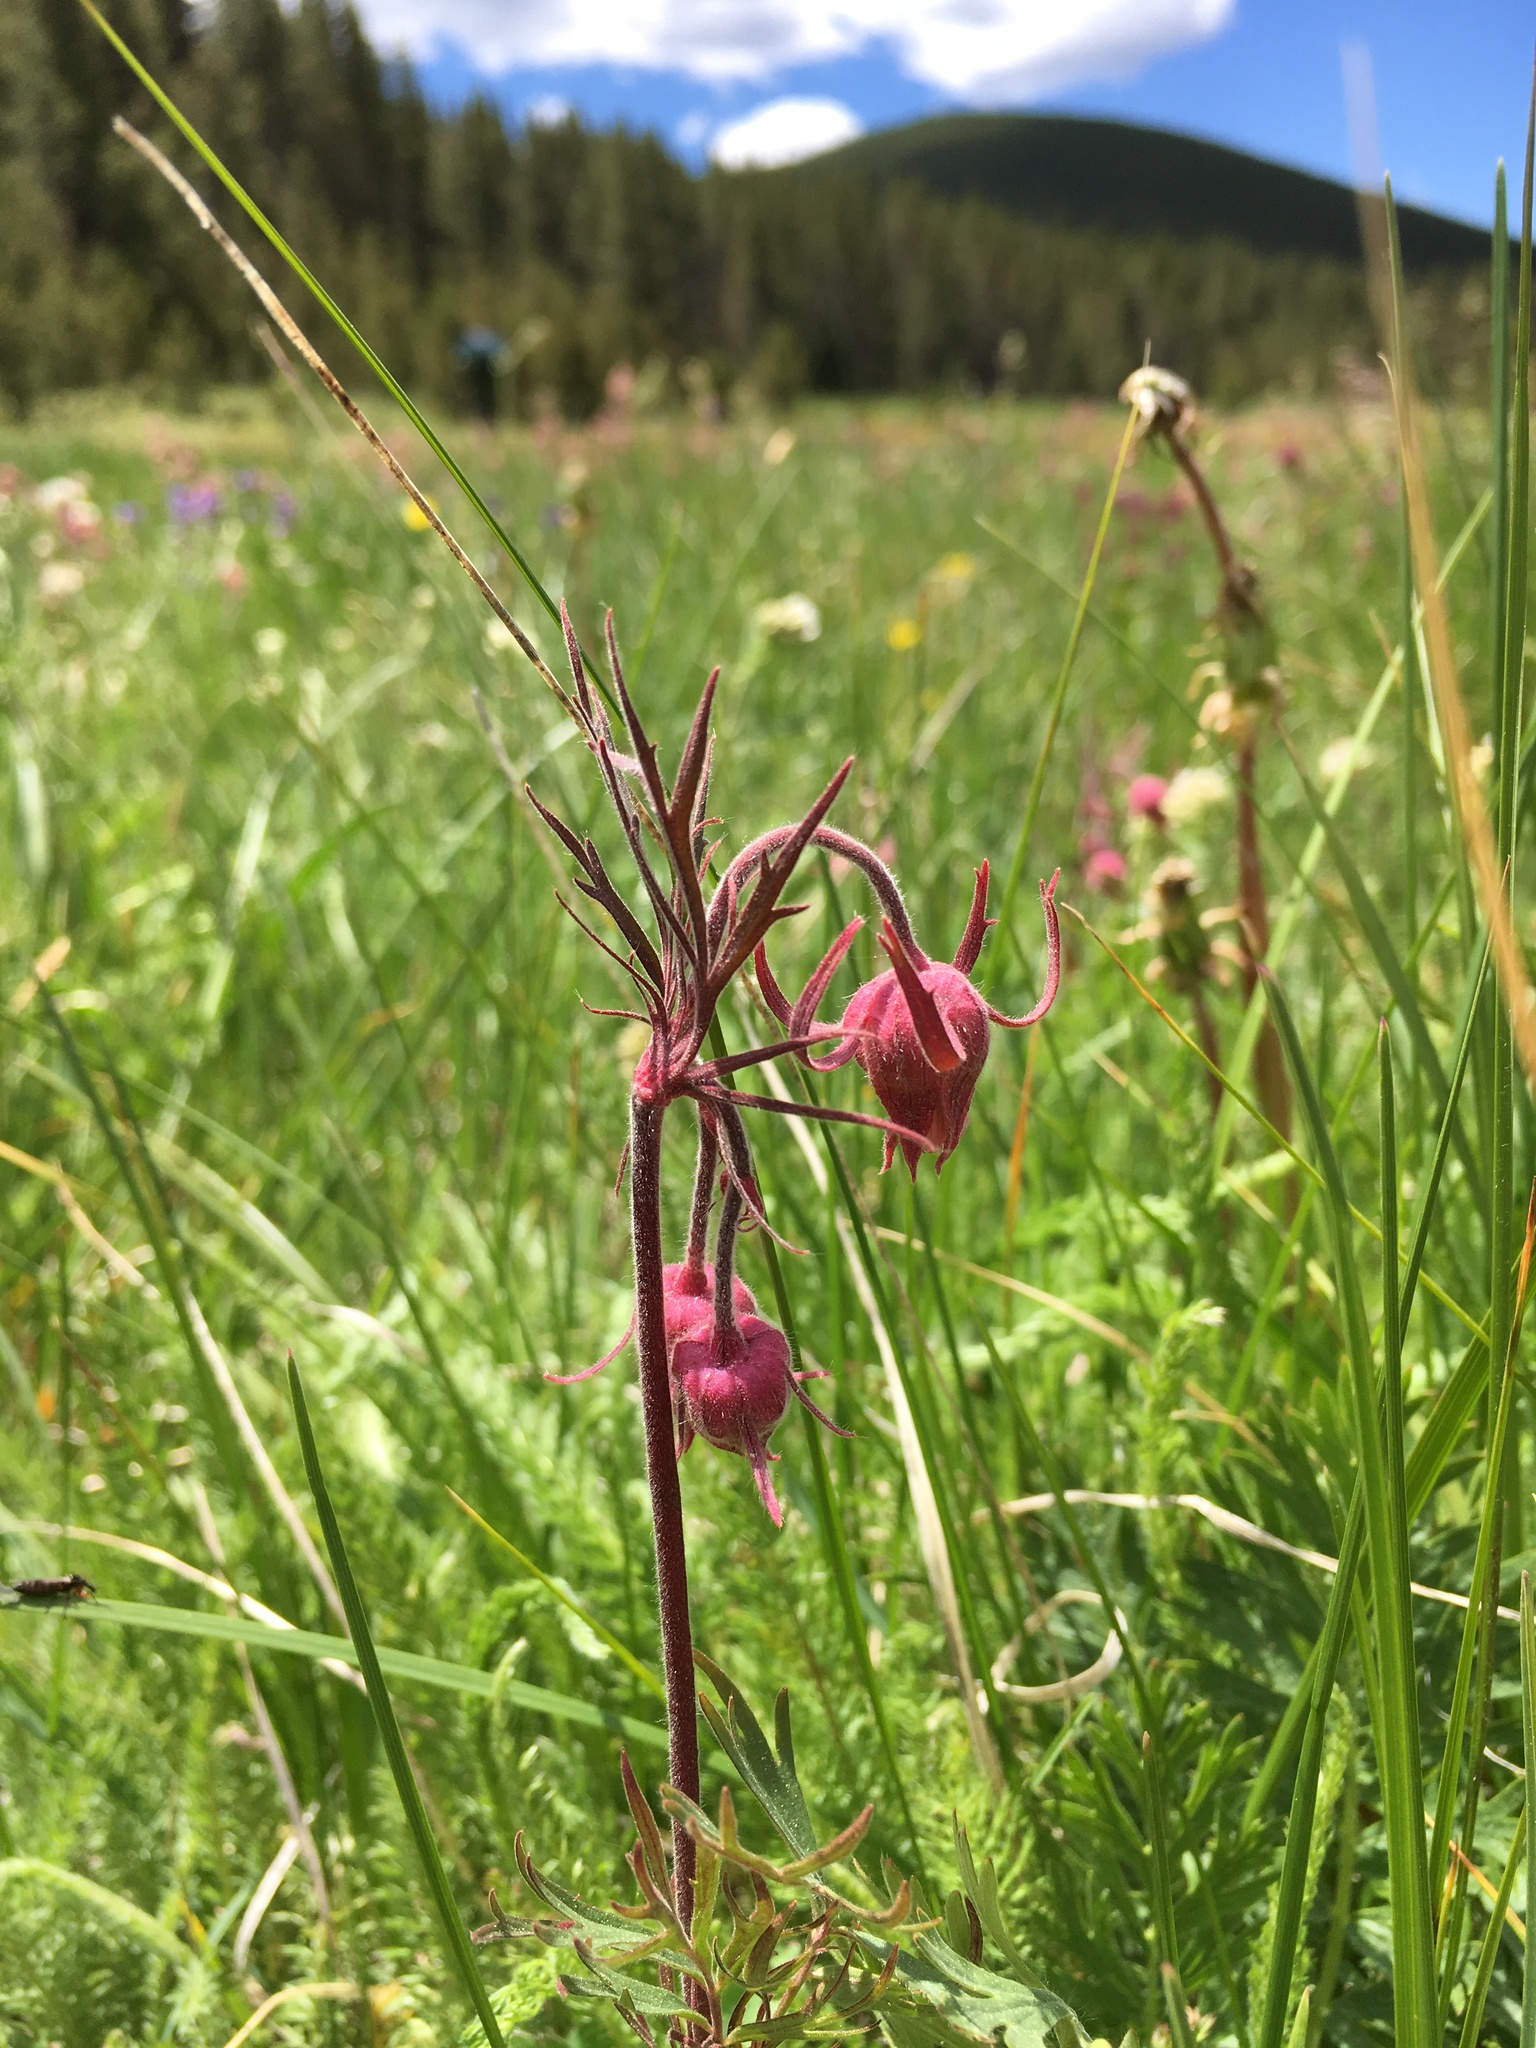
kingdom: Plantae
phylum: Tracheophyta
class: Magnoliopsida
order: Rosales
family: Rosaceae
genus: Geum
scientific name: Geum triflorum
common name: Old man's whiskers
